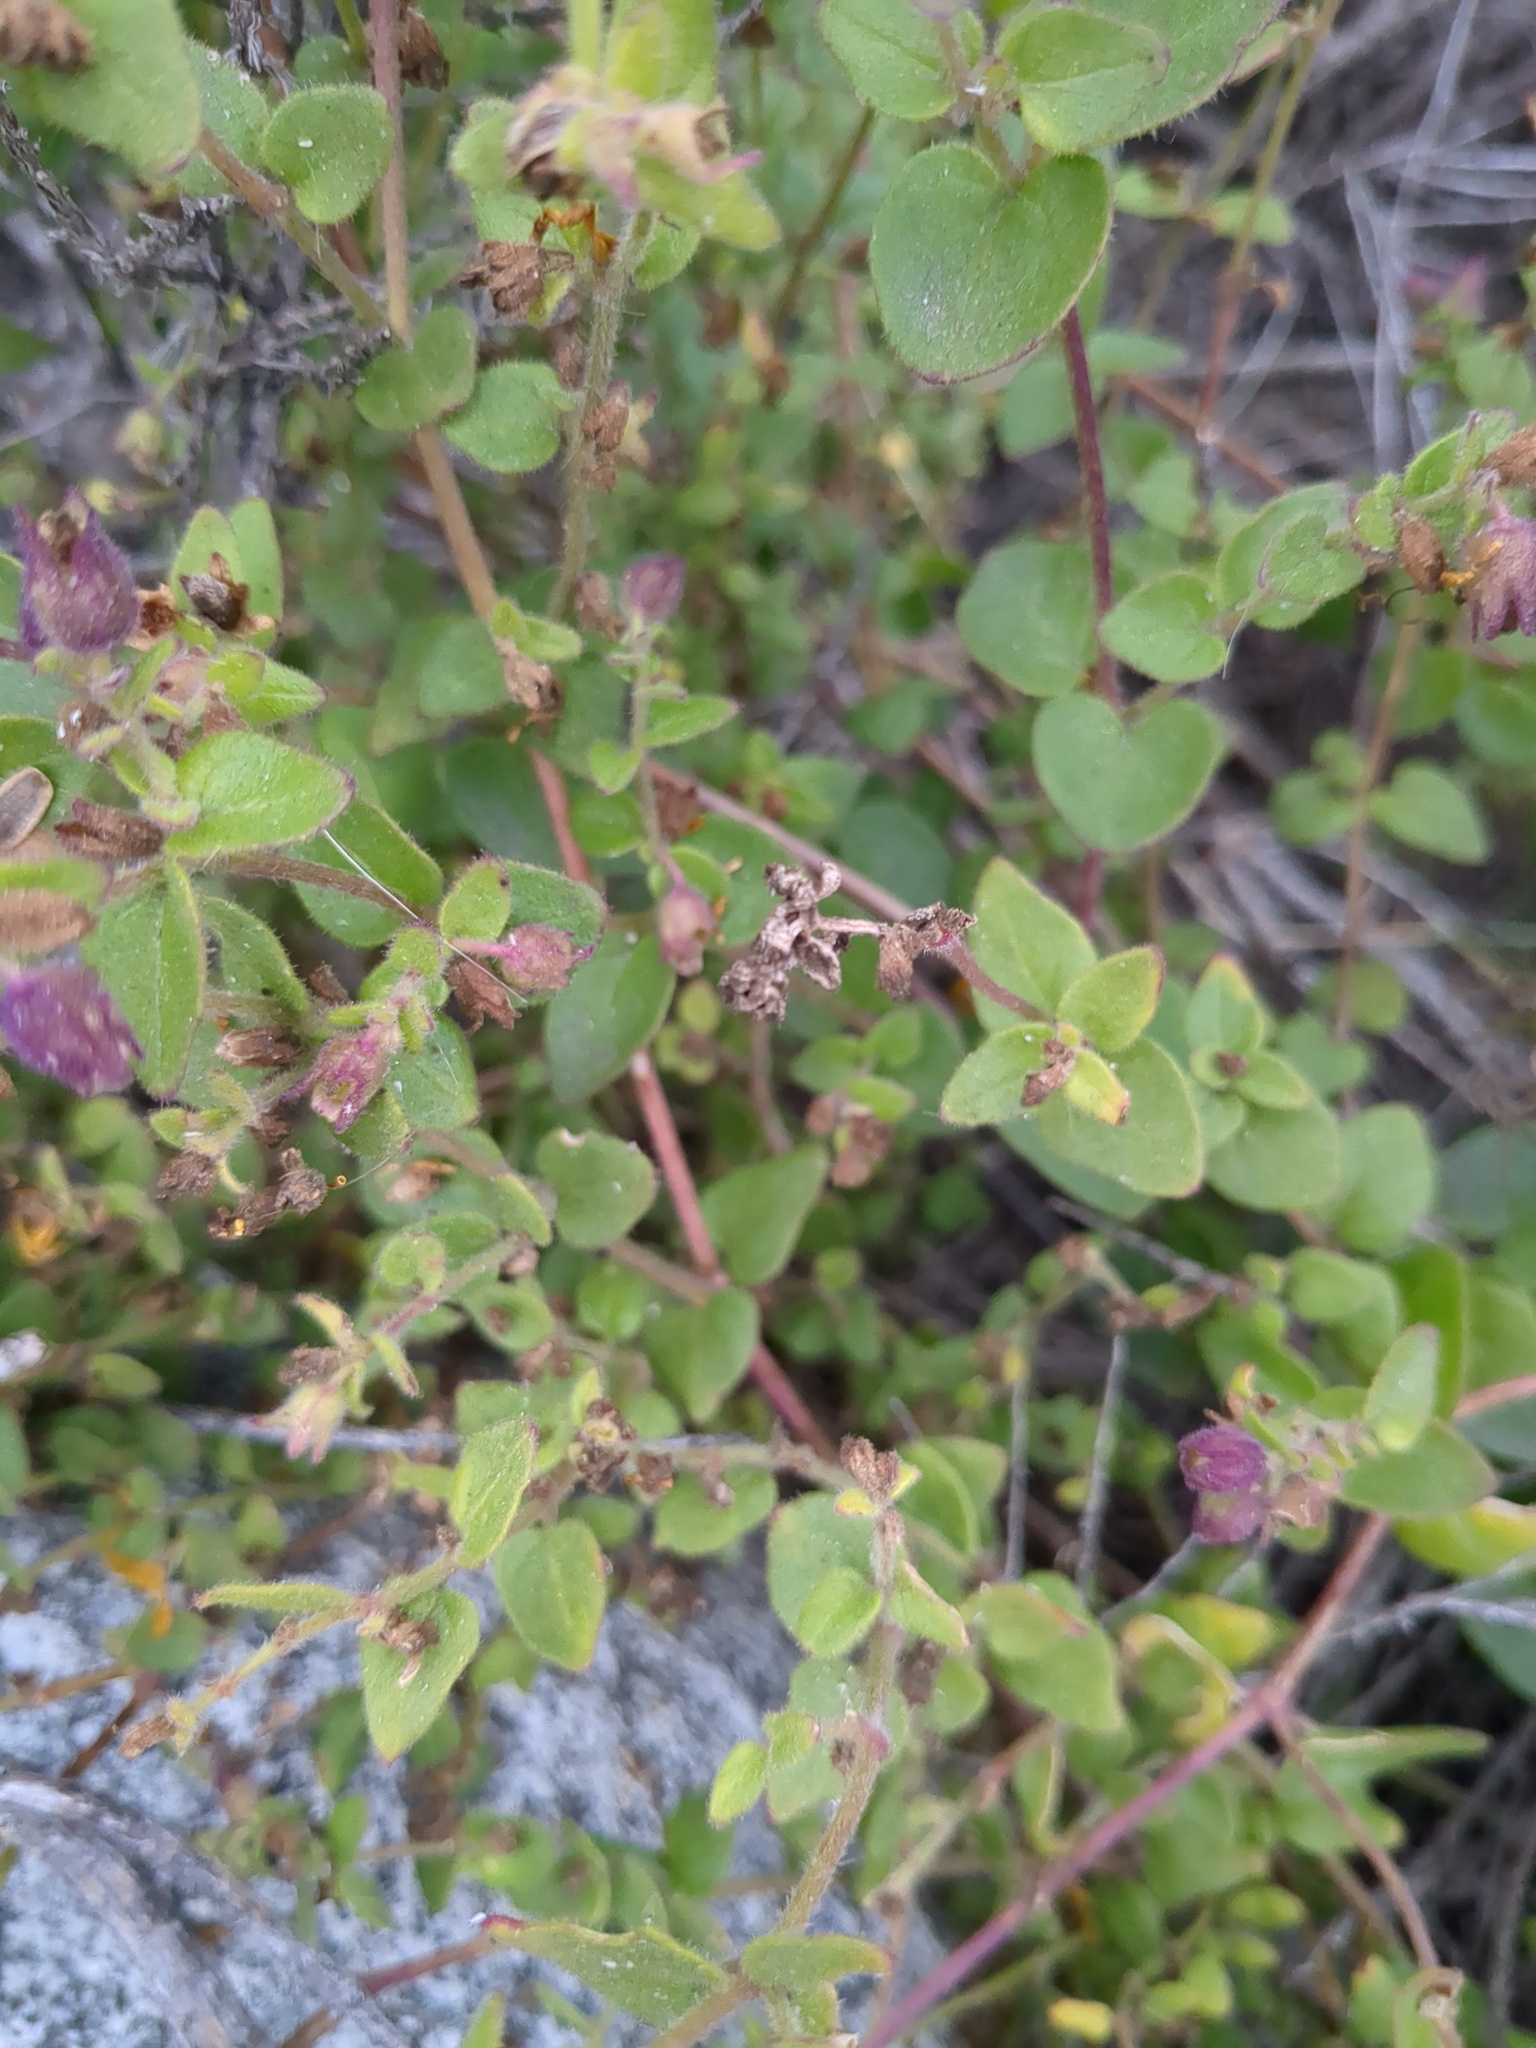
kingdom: Plantae
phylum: Tracheophyta
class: Magnoliopsida
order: Caryophyllales
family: Nyctaginaceae
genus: Mirabilis
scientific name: Mirabilis laevis
